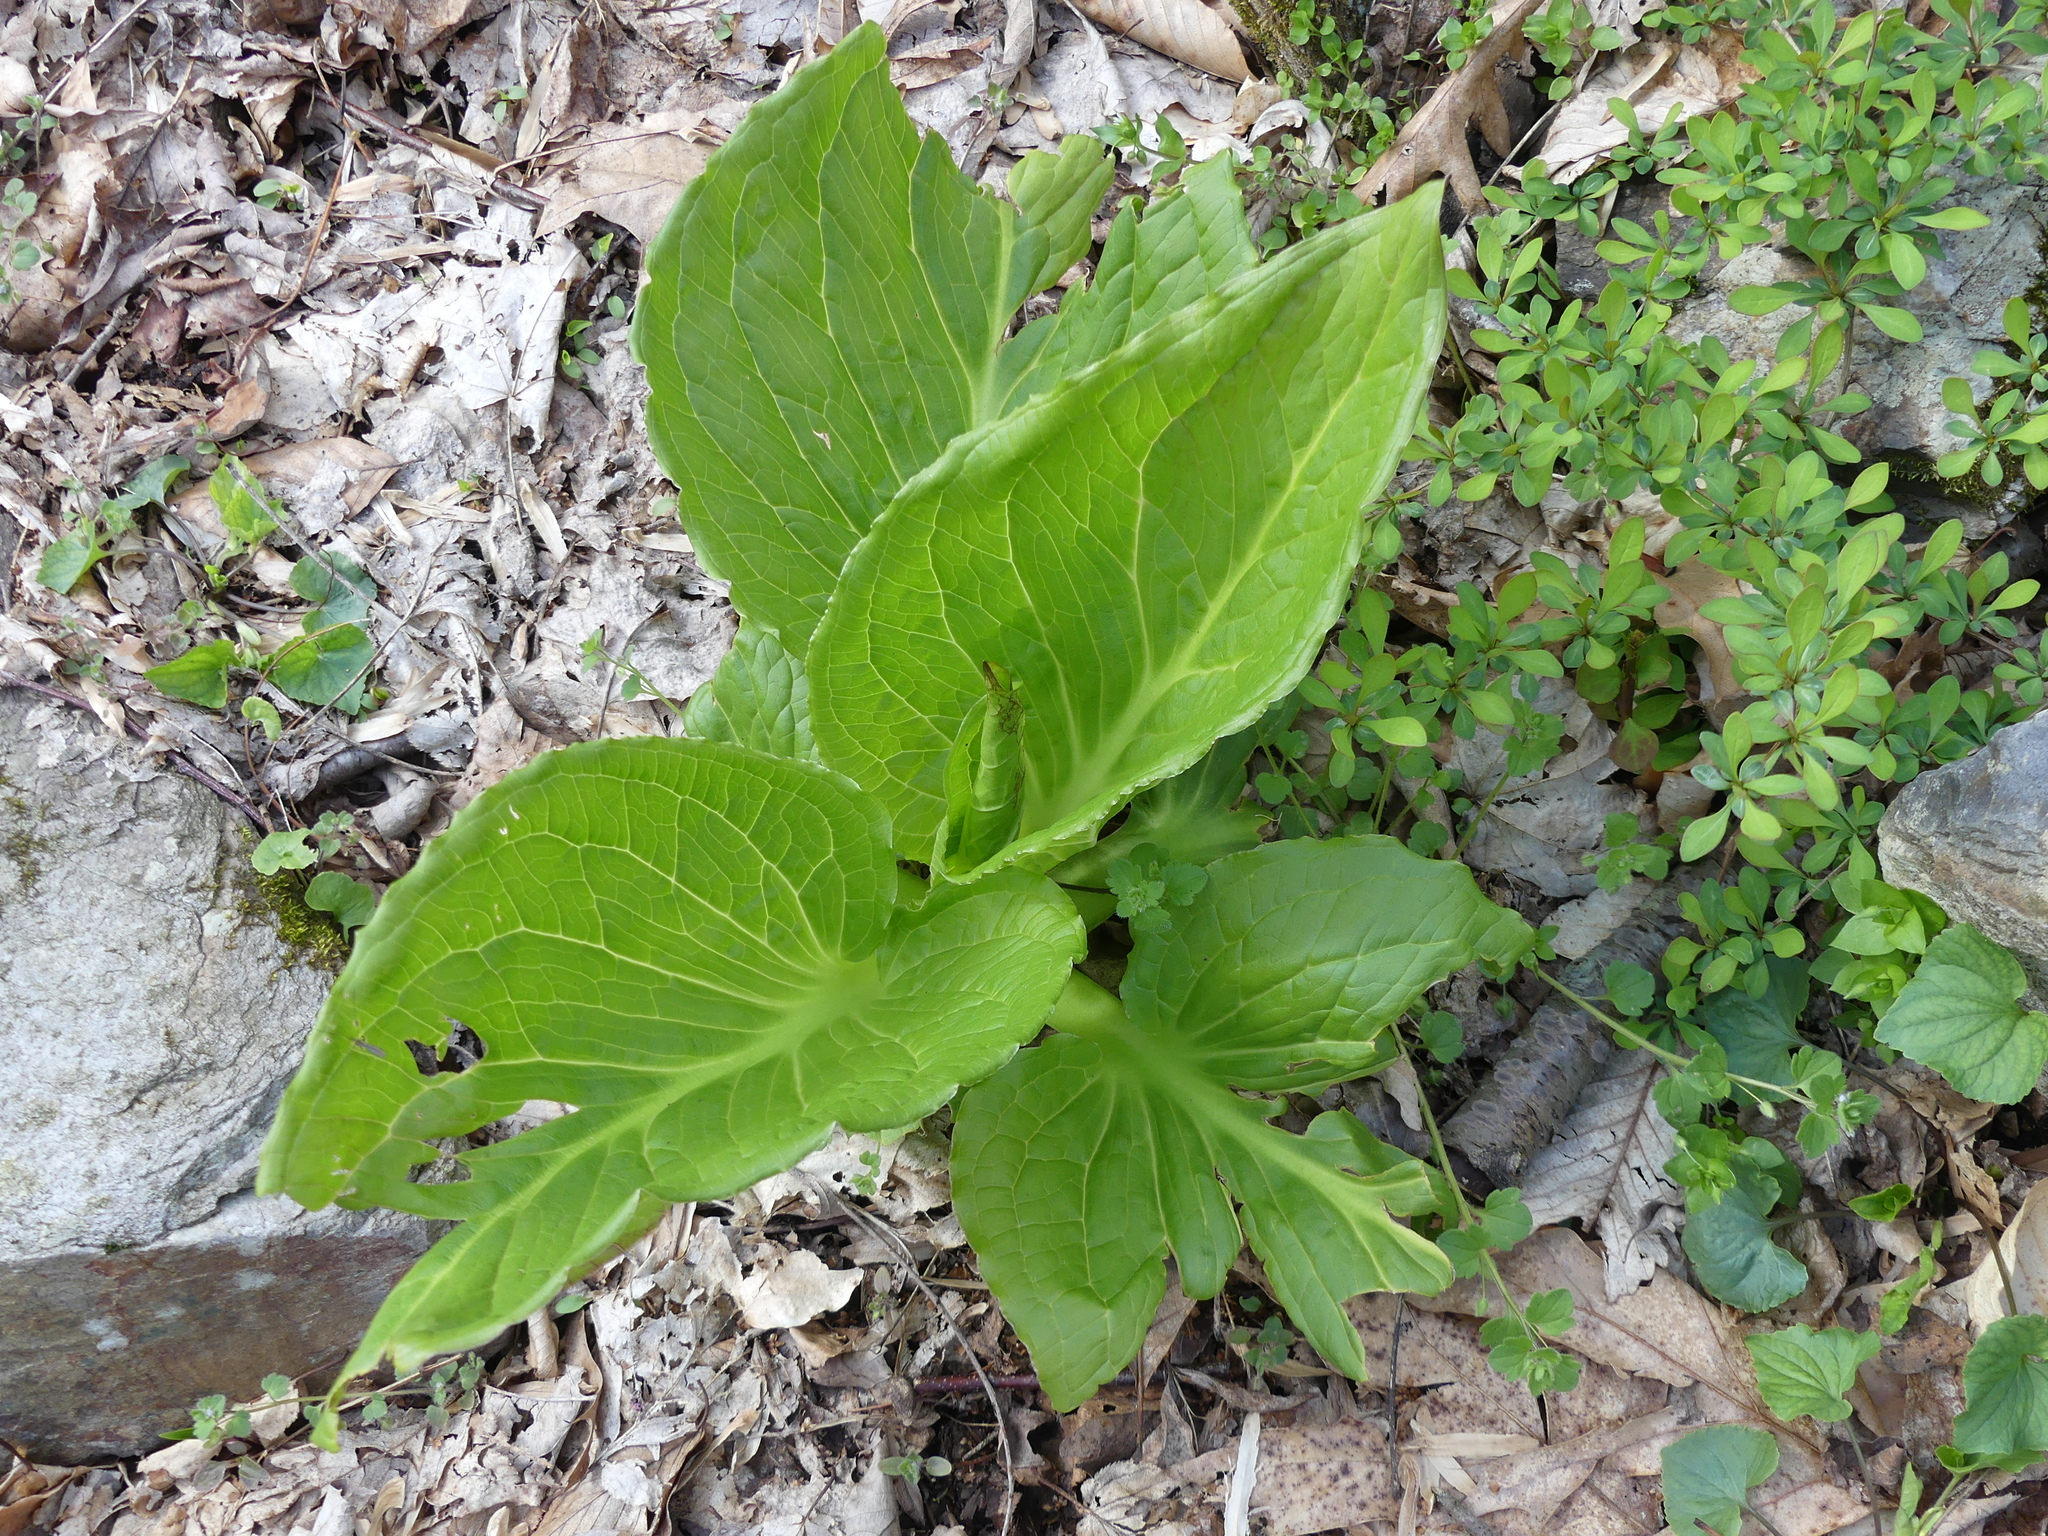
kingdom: Plantae
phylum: Tracheophyta
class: Liliopsida
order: Alismatales
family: Araceae
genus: Symplocarpus
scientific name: Symplocarpus foetidus
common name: Eastern skunk cabbage
